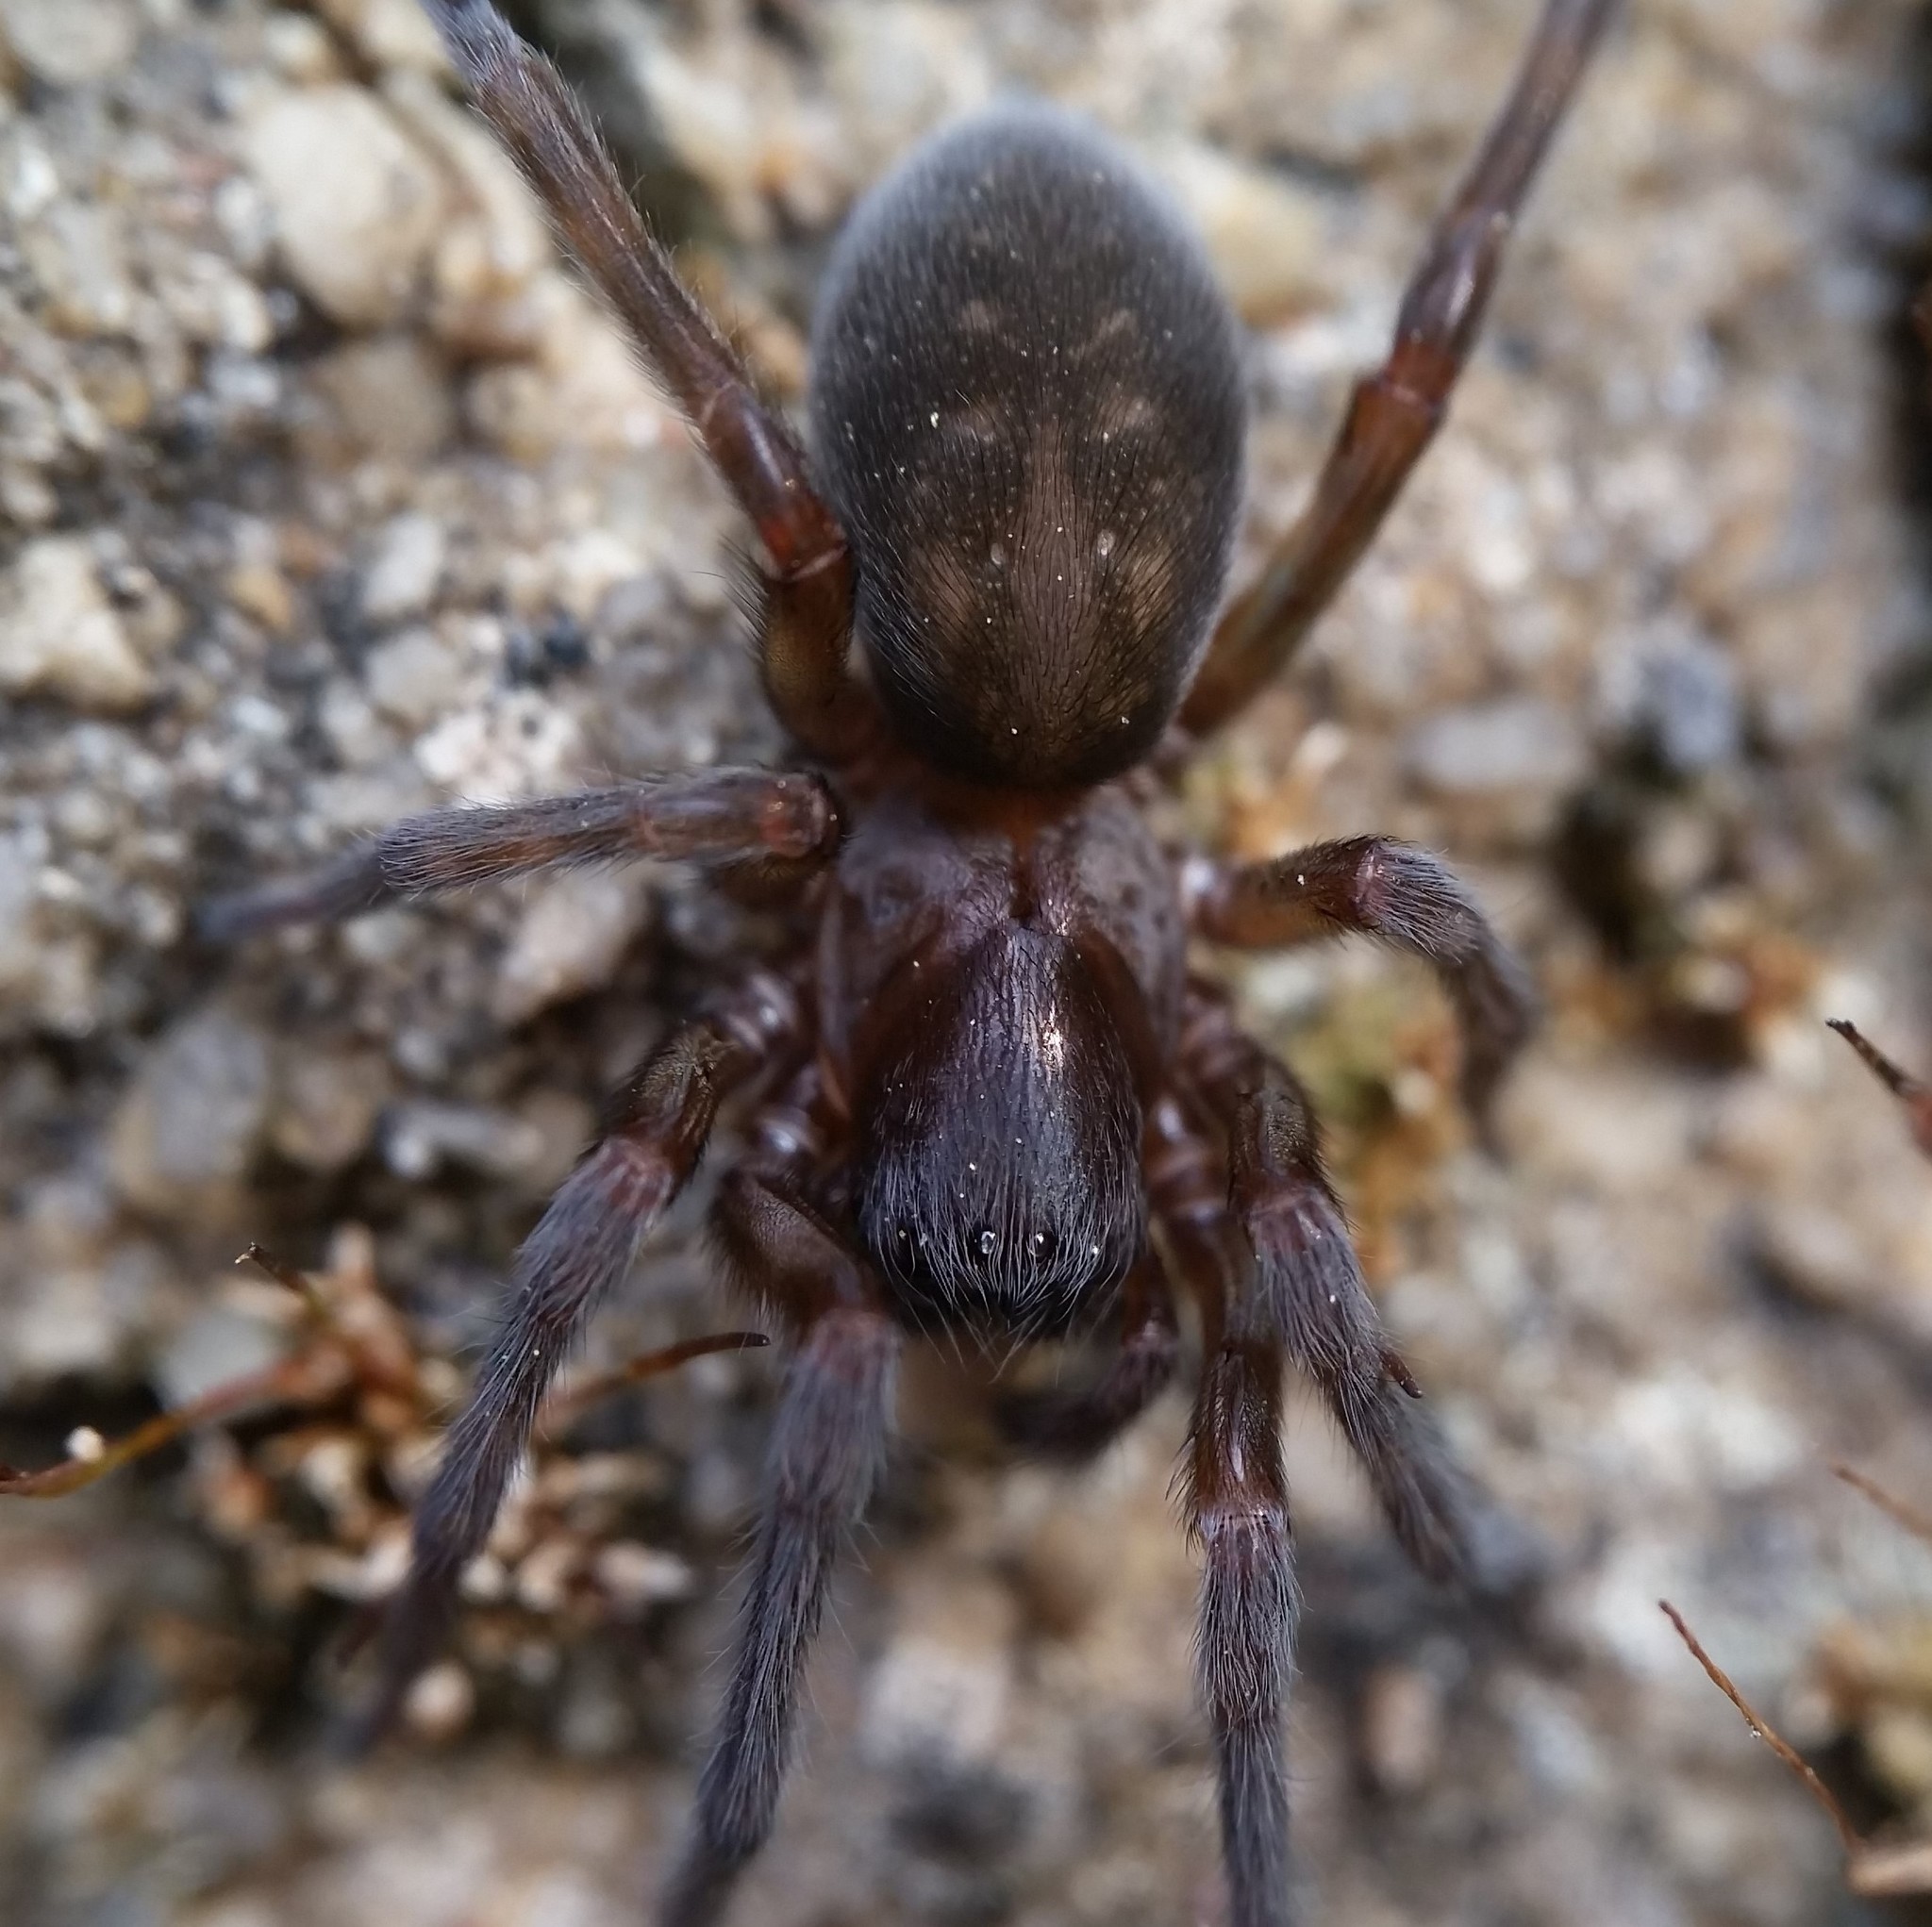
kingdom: Animalia
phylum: Arthropoda
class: Arachnida
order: Araneae
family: Amaurobiidae
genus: Amaurobius
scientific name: Amaurobius ferox
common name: Black laceweaver
